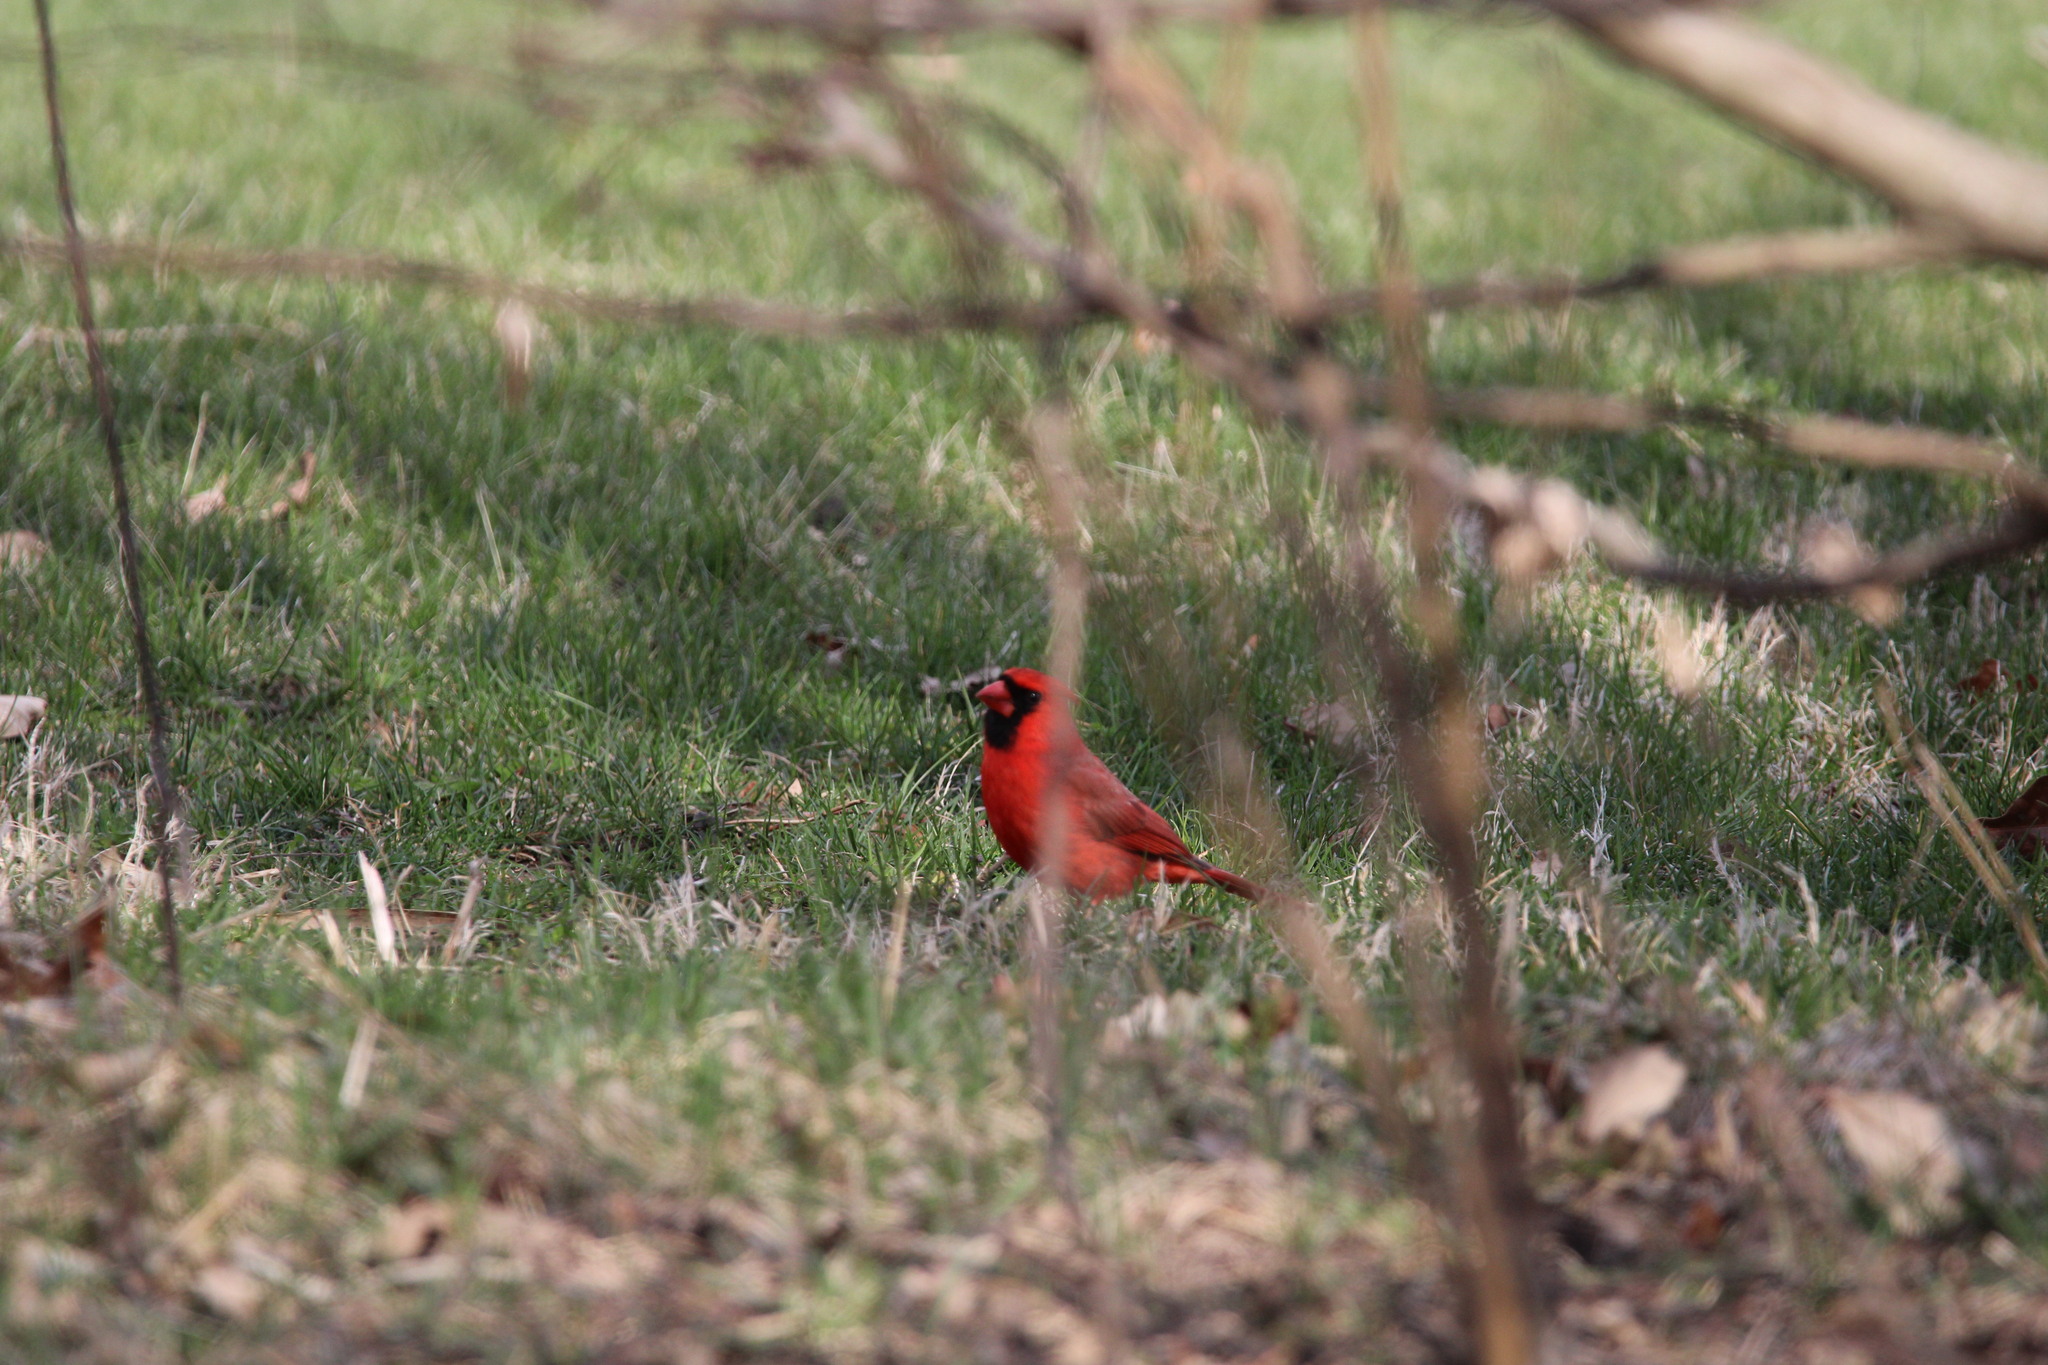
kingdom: Animalia
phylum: Chordata
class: Aves
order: Passeriformes
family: Cardinalidae
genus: Cardinalis
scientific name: Cardinalis cardinalis
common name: Northern cardinal
